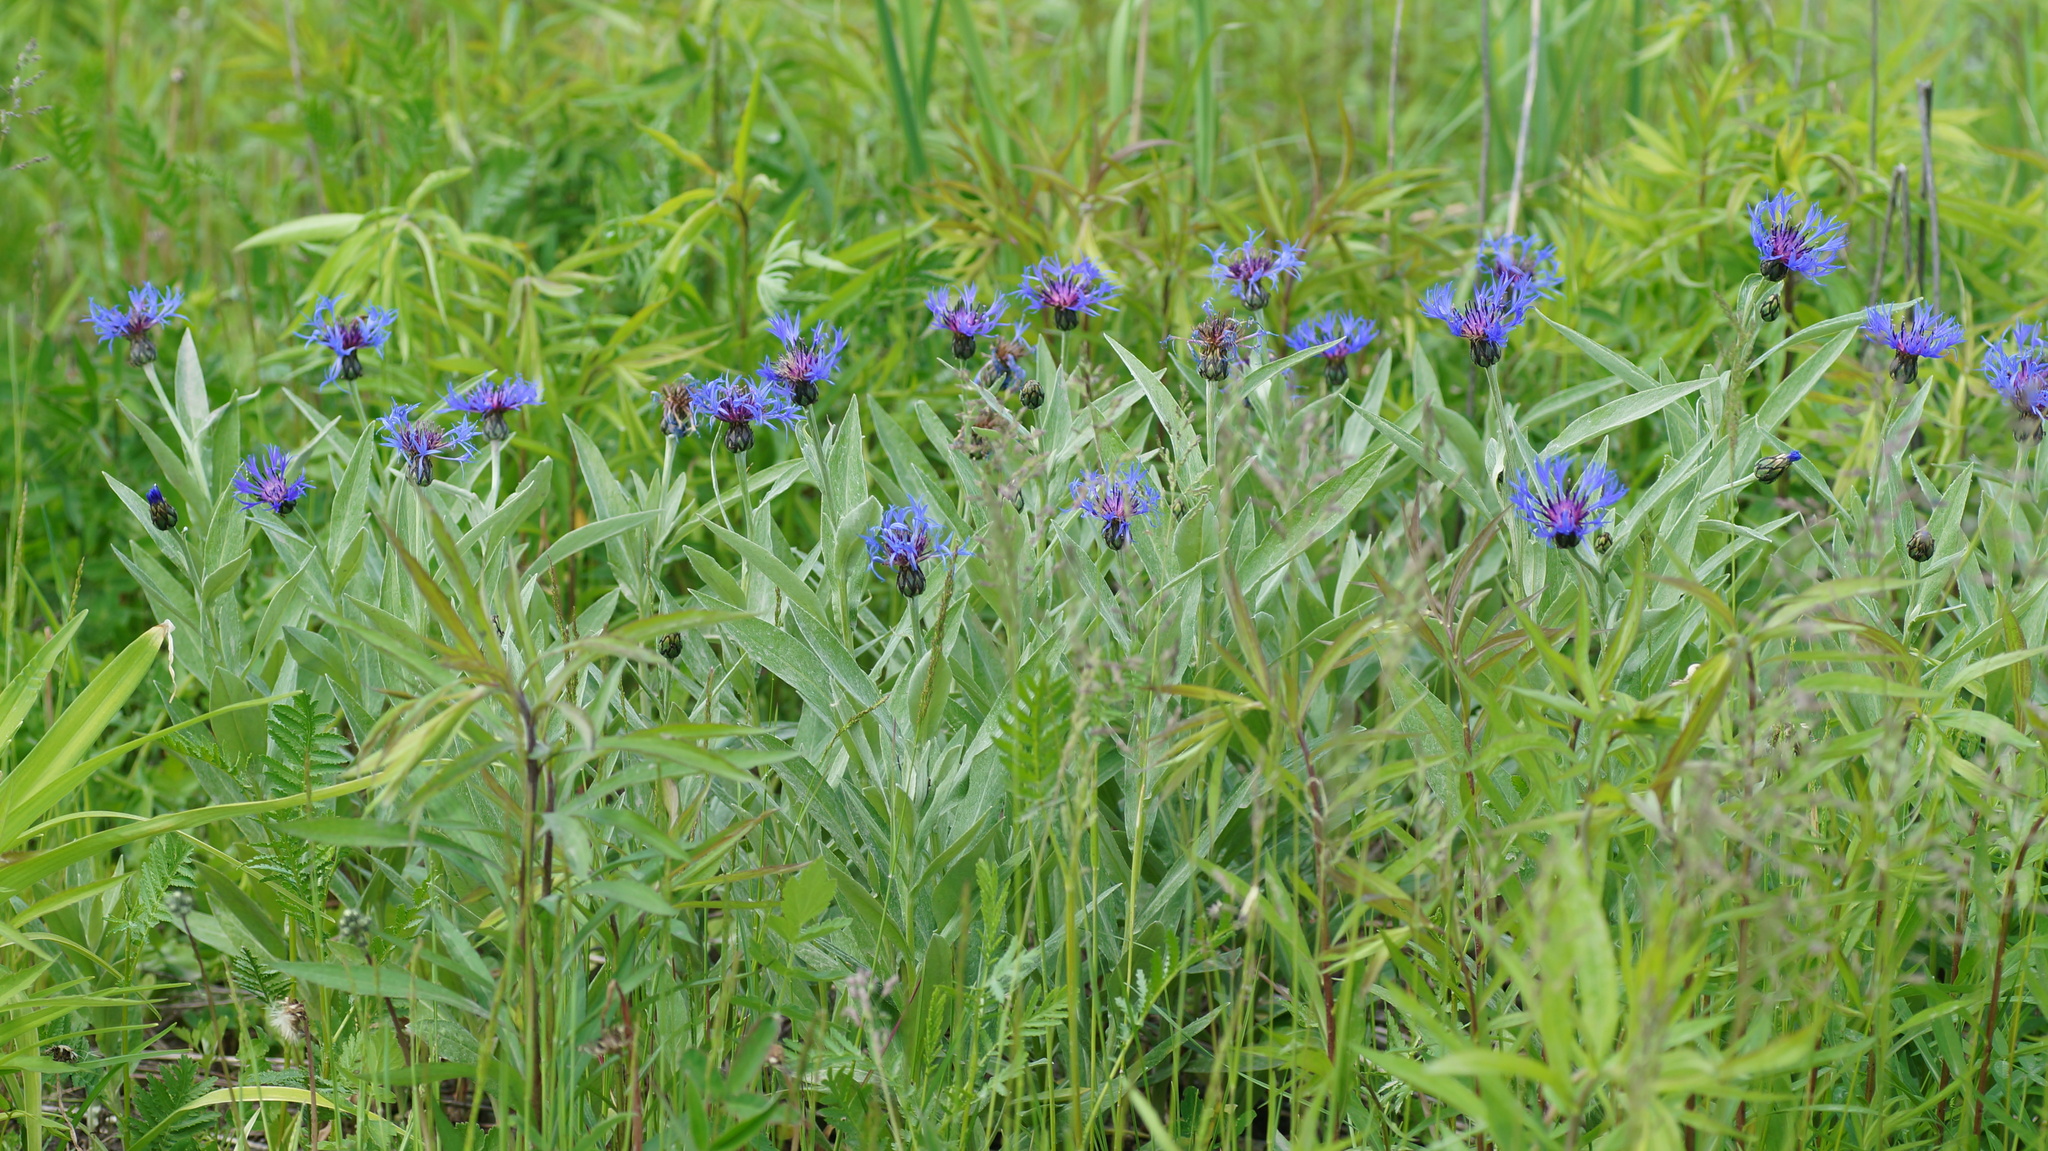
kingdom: Plantae
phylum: Tracheophyta
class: Magnoliopsida
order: Asterales
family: Asteraceae
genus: Centaurea
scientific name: Centaurea montana
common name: Perennial cornflower
